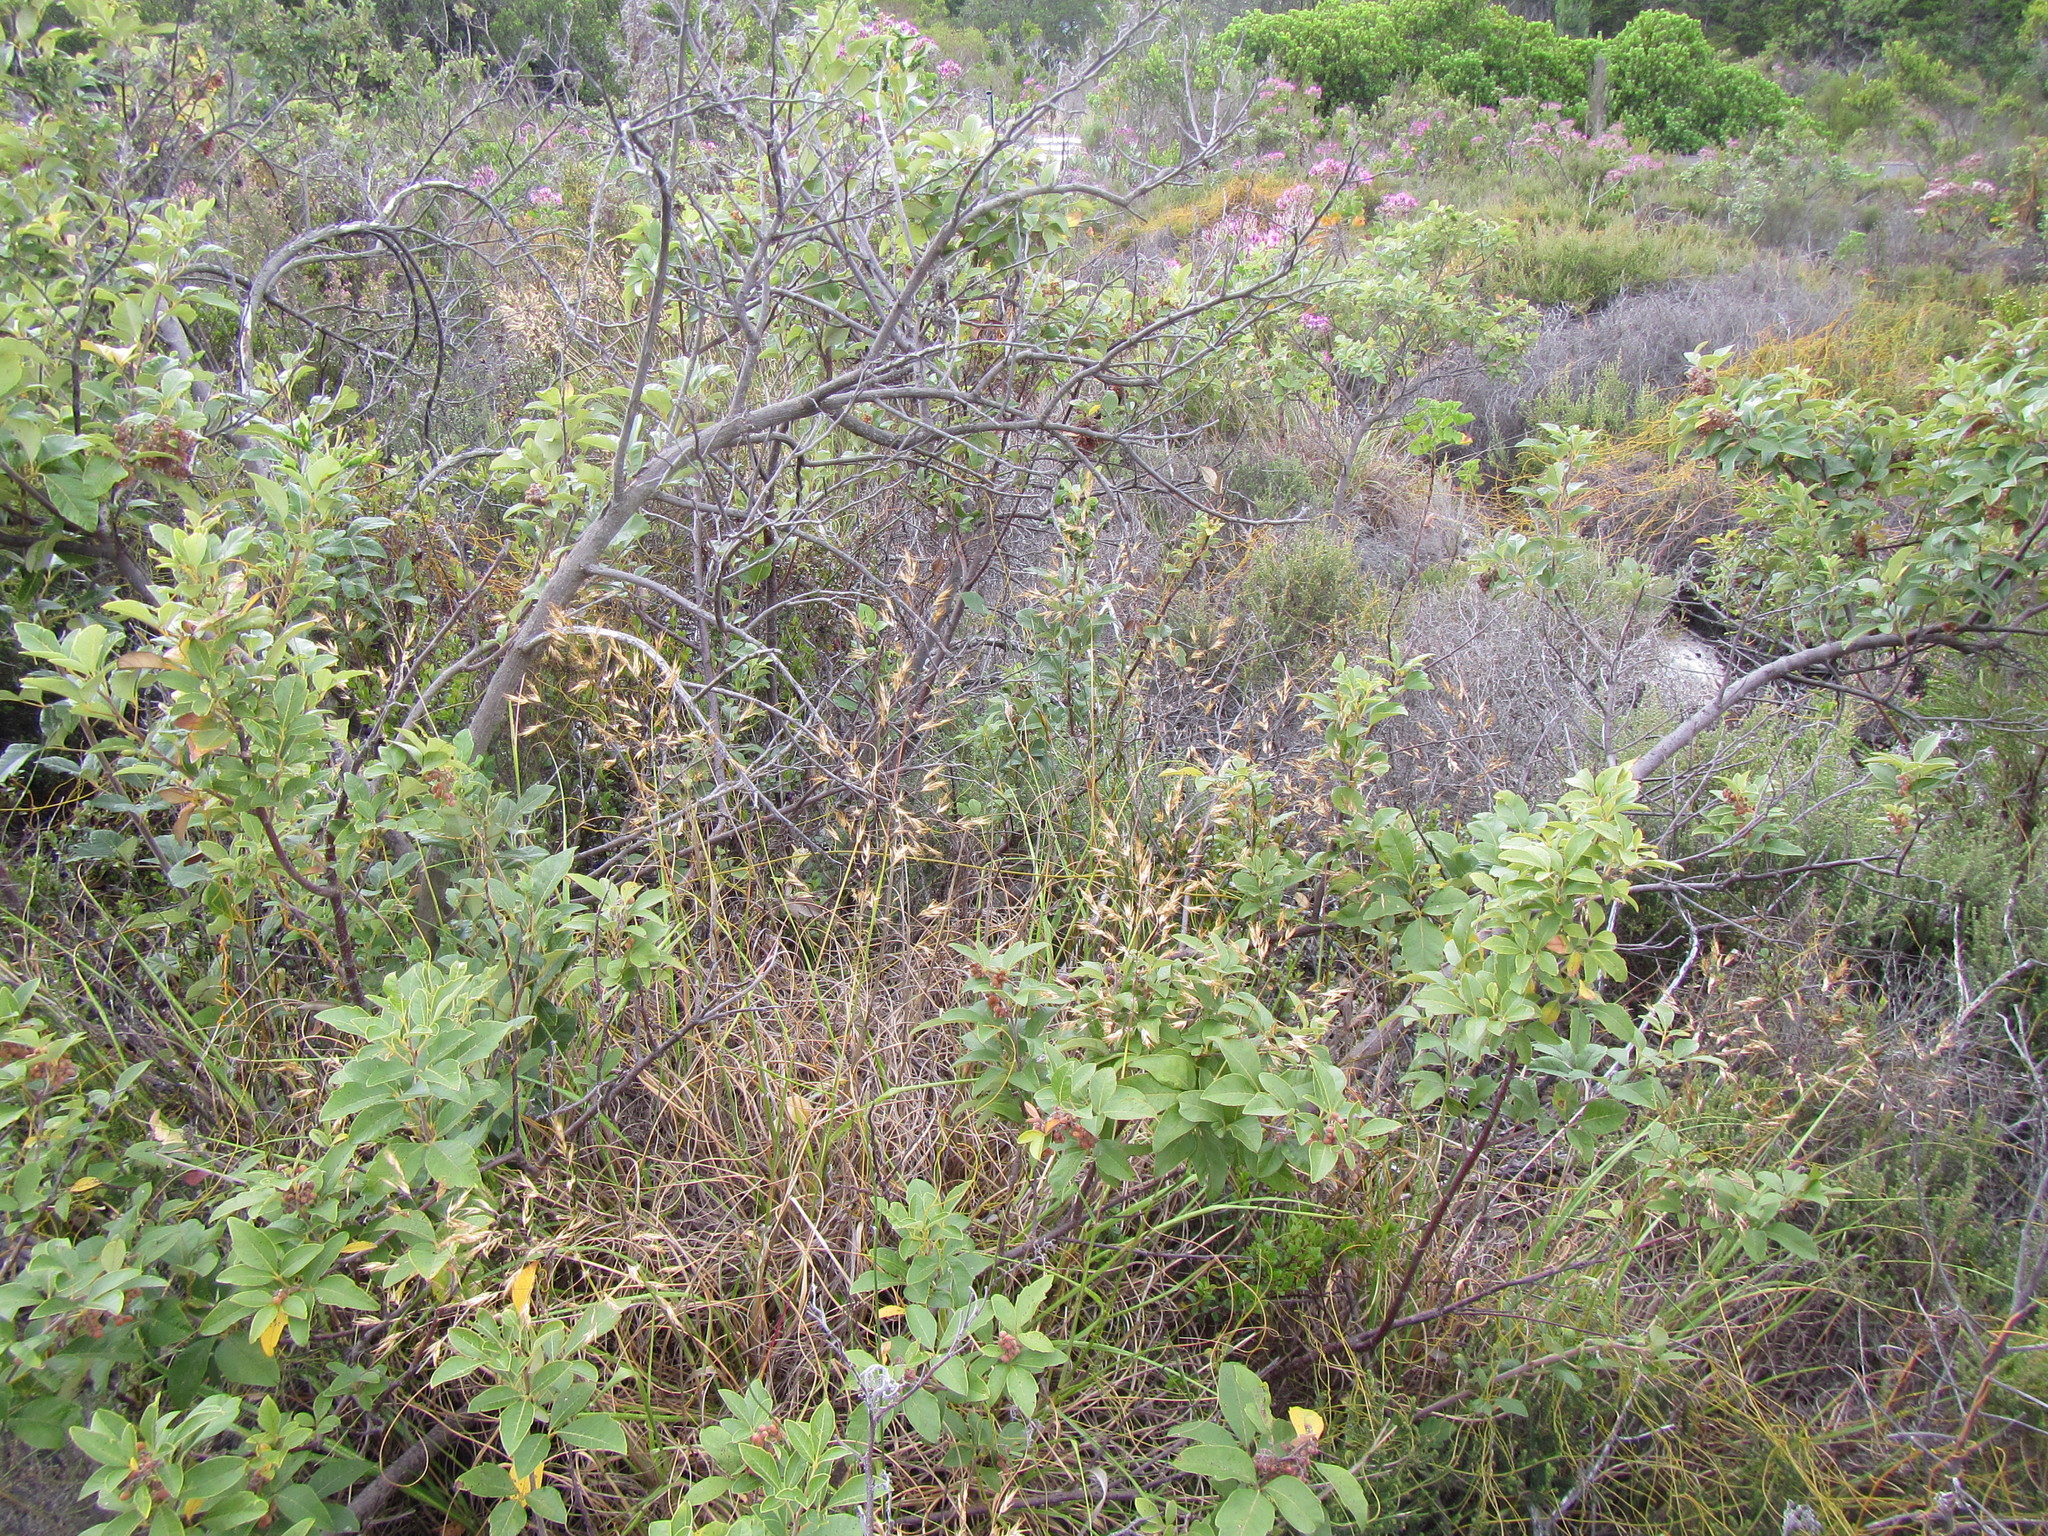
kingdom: Plantae
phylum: Tracheophyta
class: Liliopsida
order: Poales
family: Poaceae
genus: Pentameris
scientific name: Pentameris tortuosa
